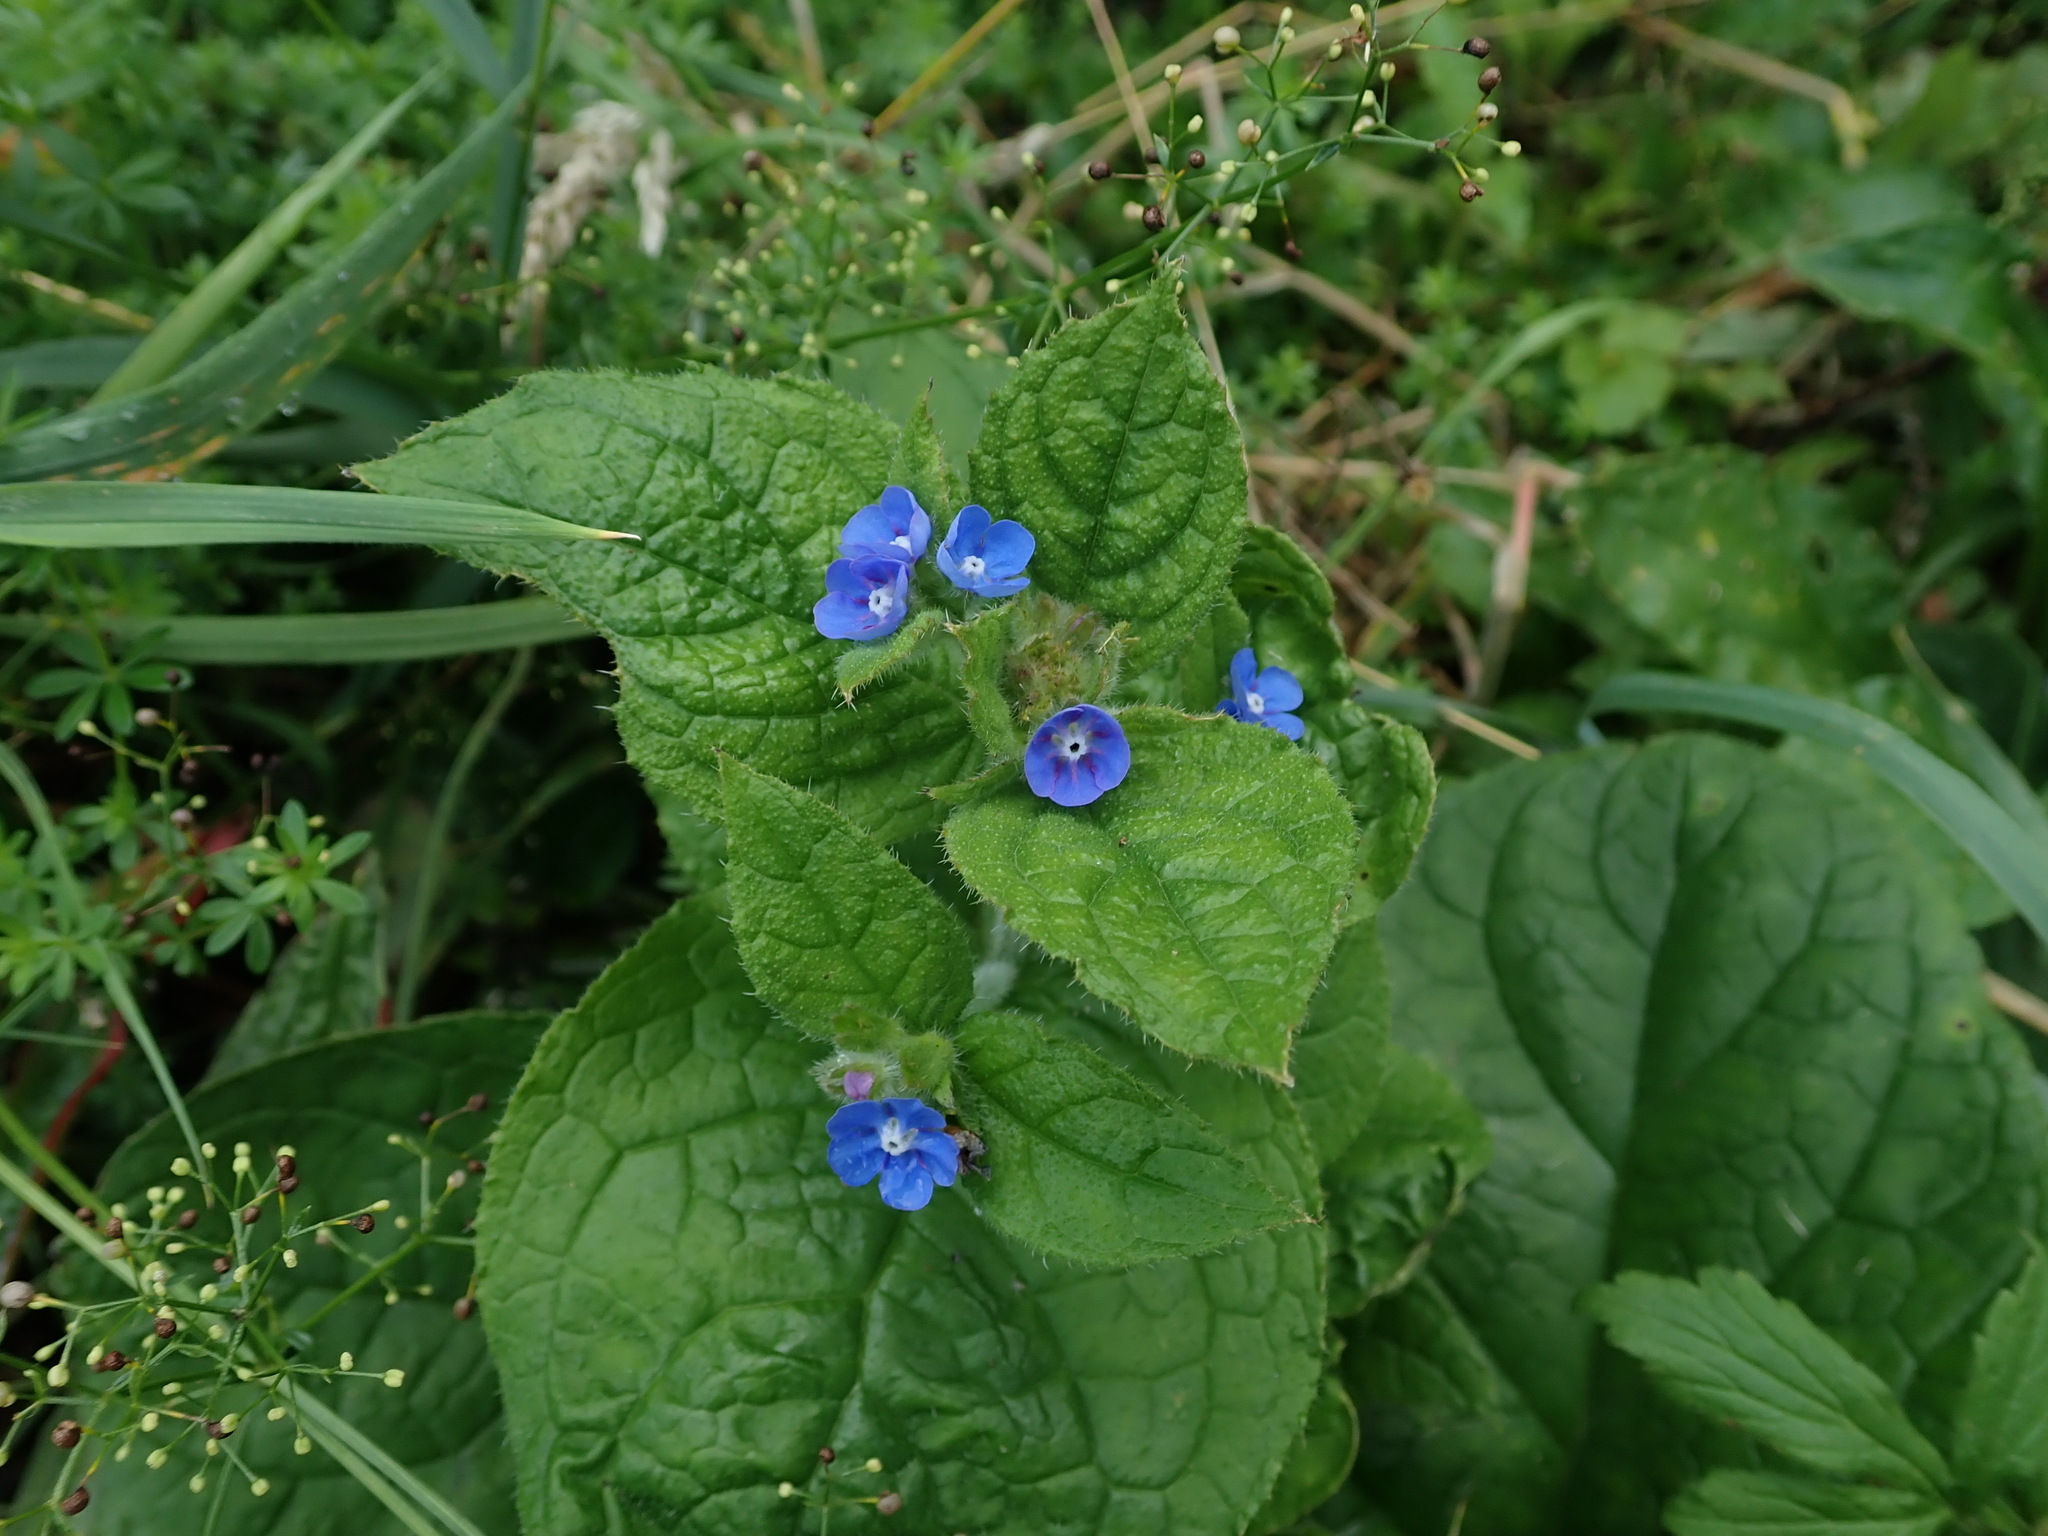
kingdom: Plantae
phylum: Tracheophyta
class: Magnoliopsida
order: Boraginales
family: Boraginaceae
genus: Pentaglottis
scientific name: Pentaglottis sempervirens
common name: Green alkanet
